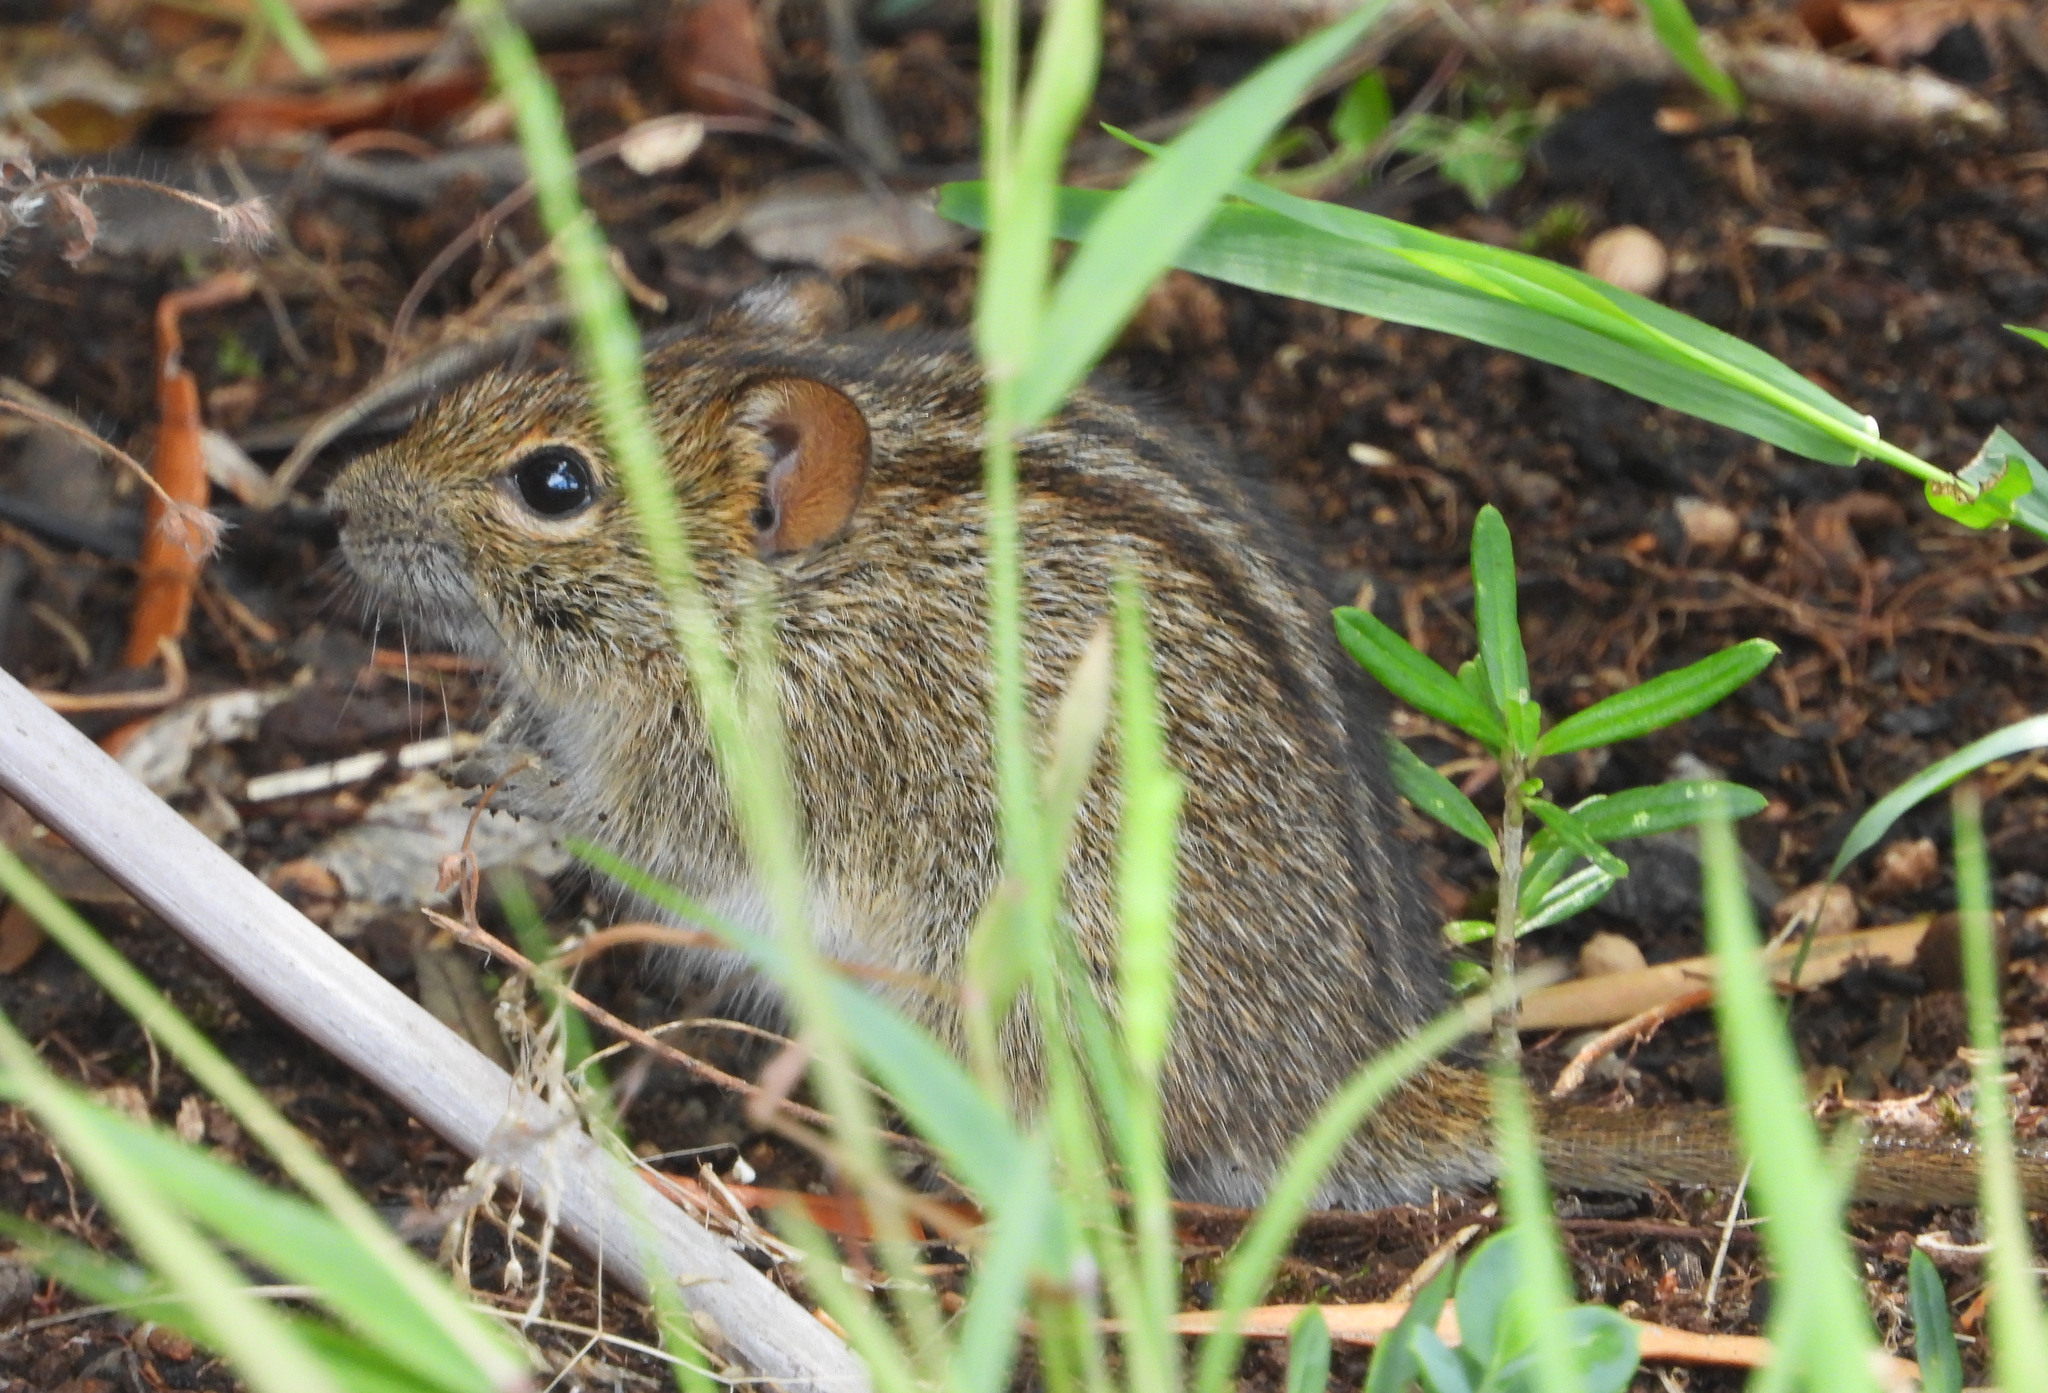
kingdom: Animalia
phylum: Chordata
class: Mammalia
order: Rodentia
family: Muridae
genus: Rhabdomys
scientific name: Rhabdomys pumilio
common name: Xeric four-striped grass rat
